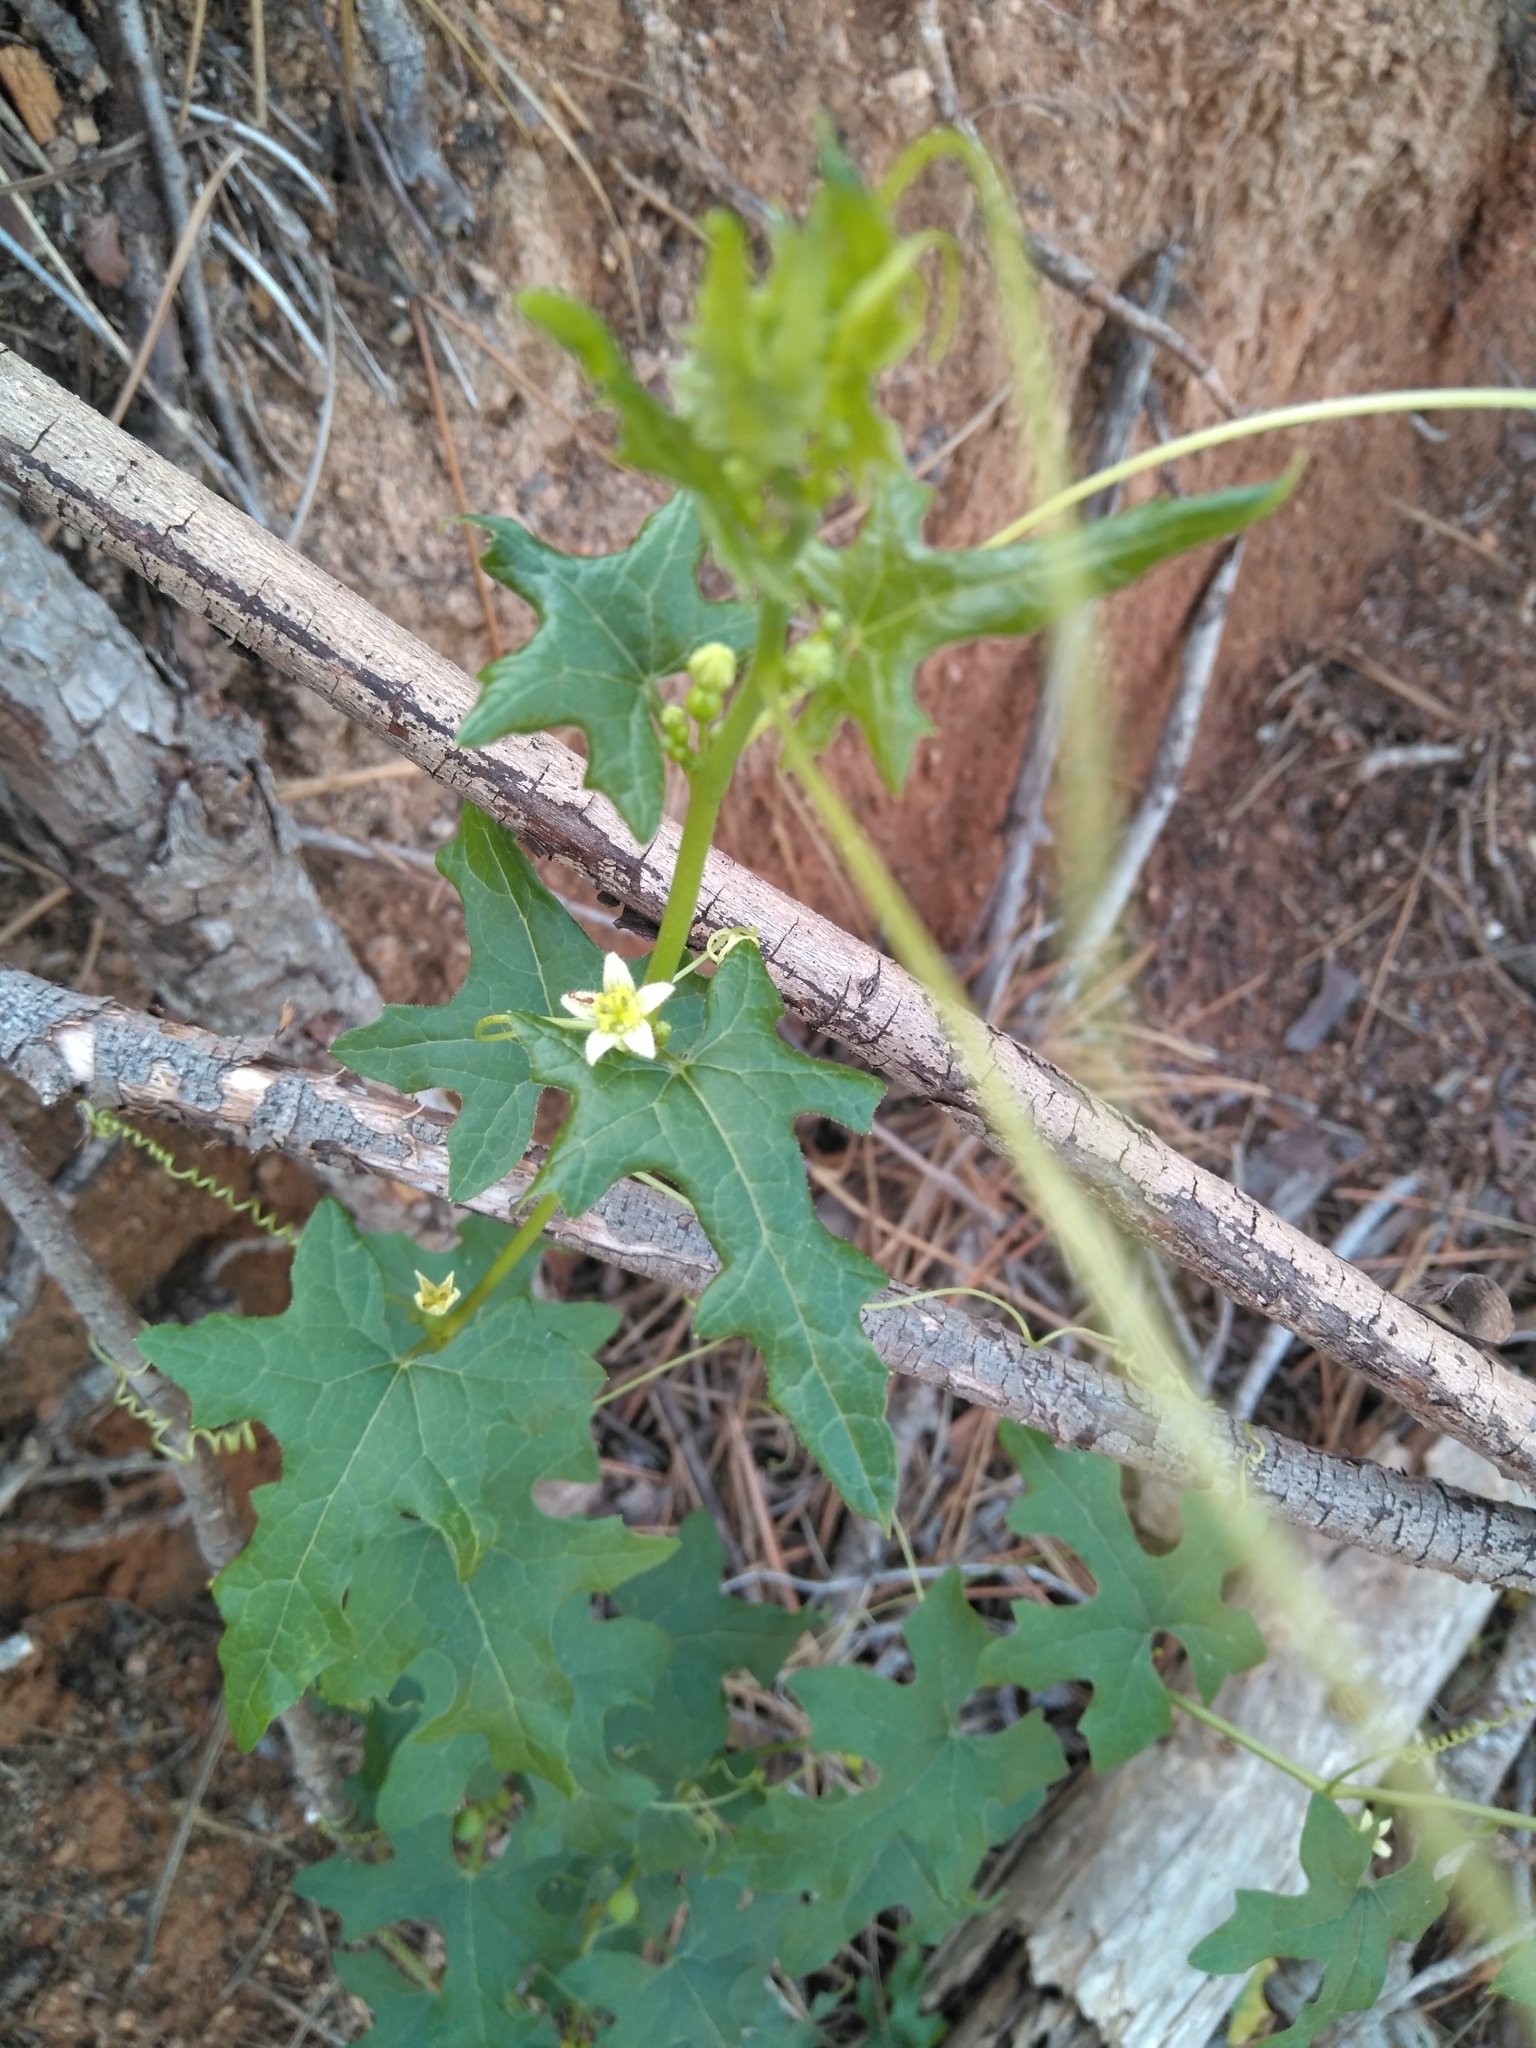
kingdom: Plantae
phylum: Tracheophyta
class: Magnoliopsida
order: Cucurbitales
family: Cucurbitaceae
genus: Bryonia
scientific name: Bryonia dioica
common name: White bryony
